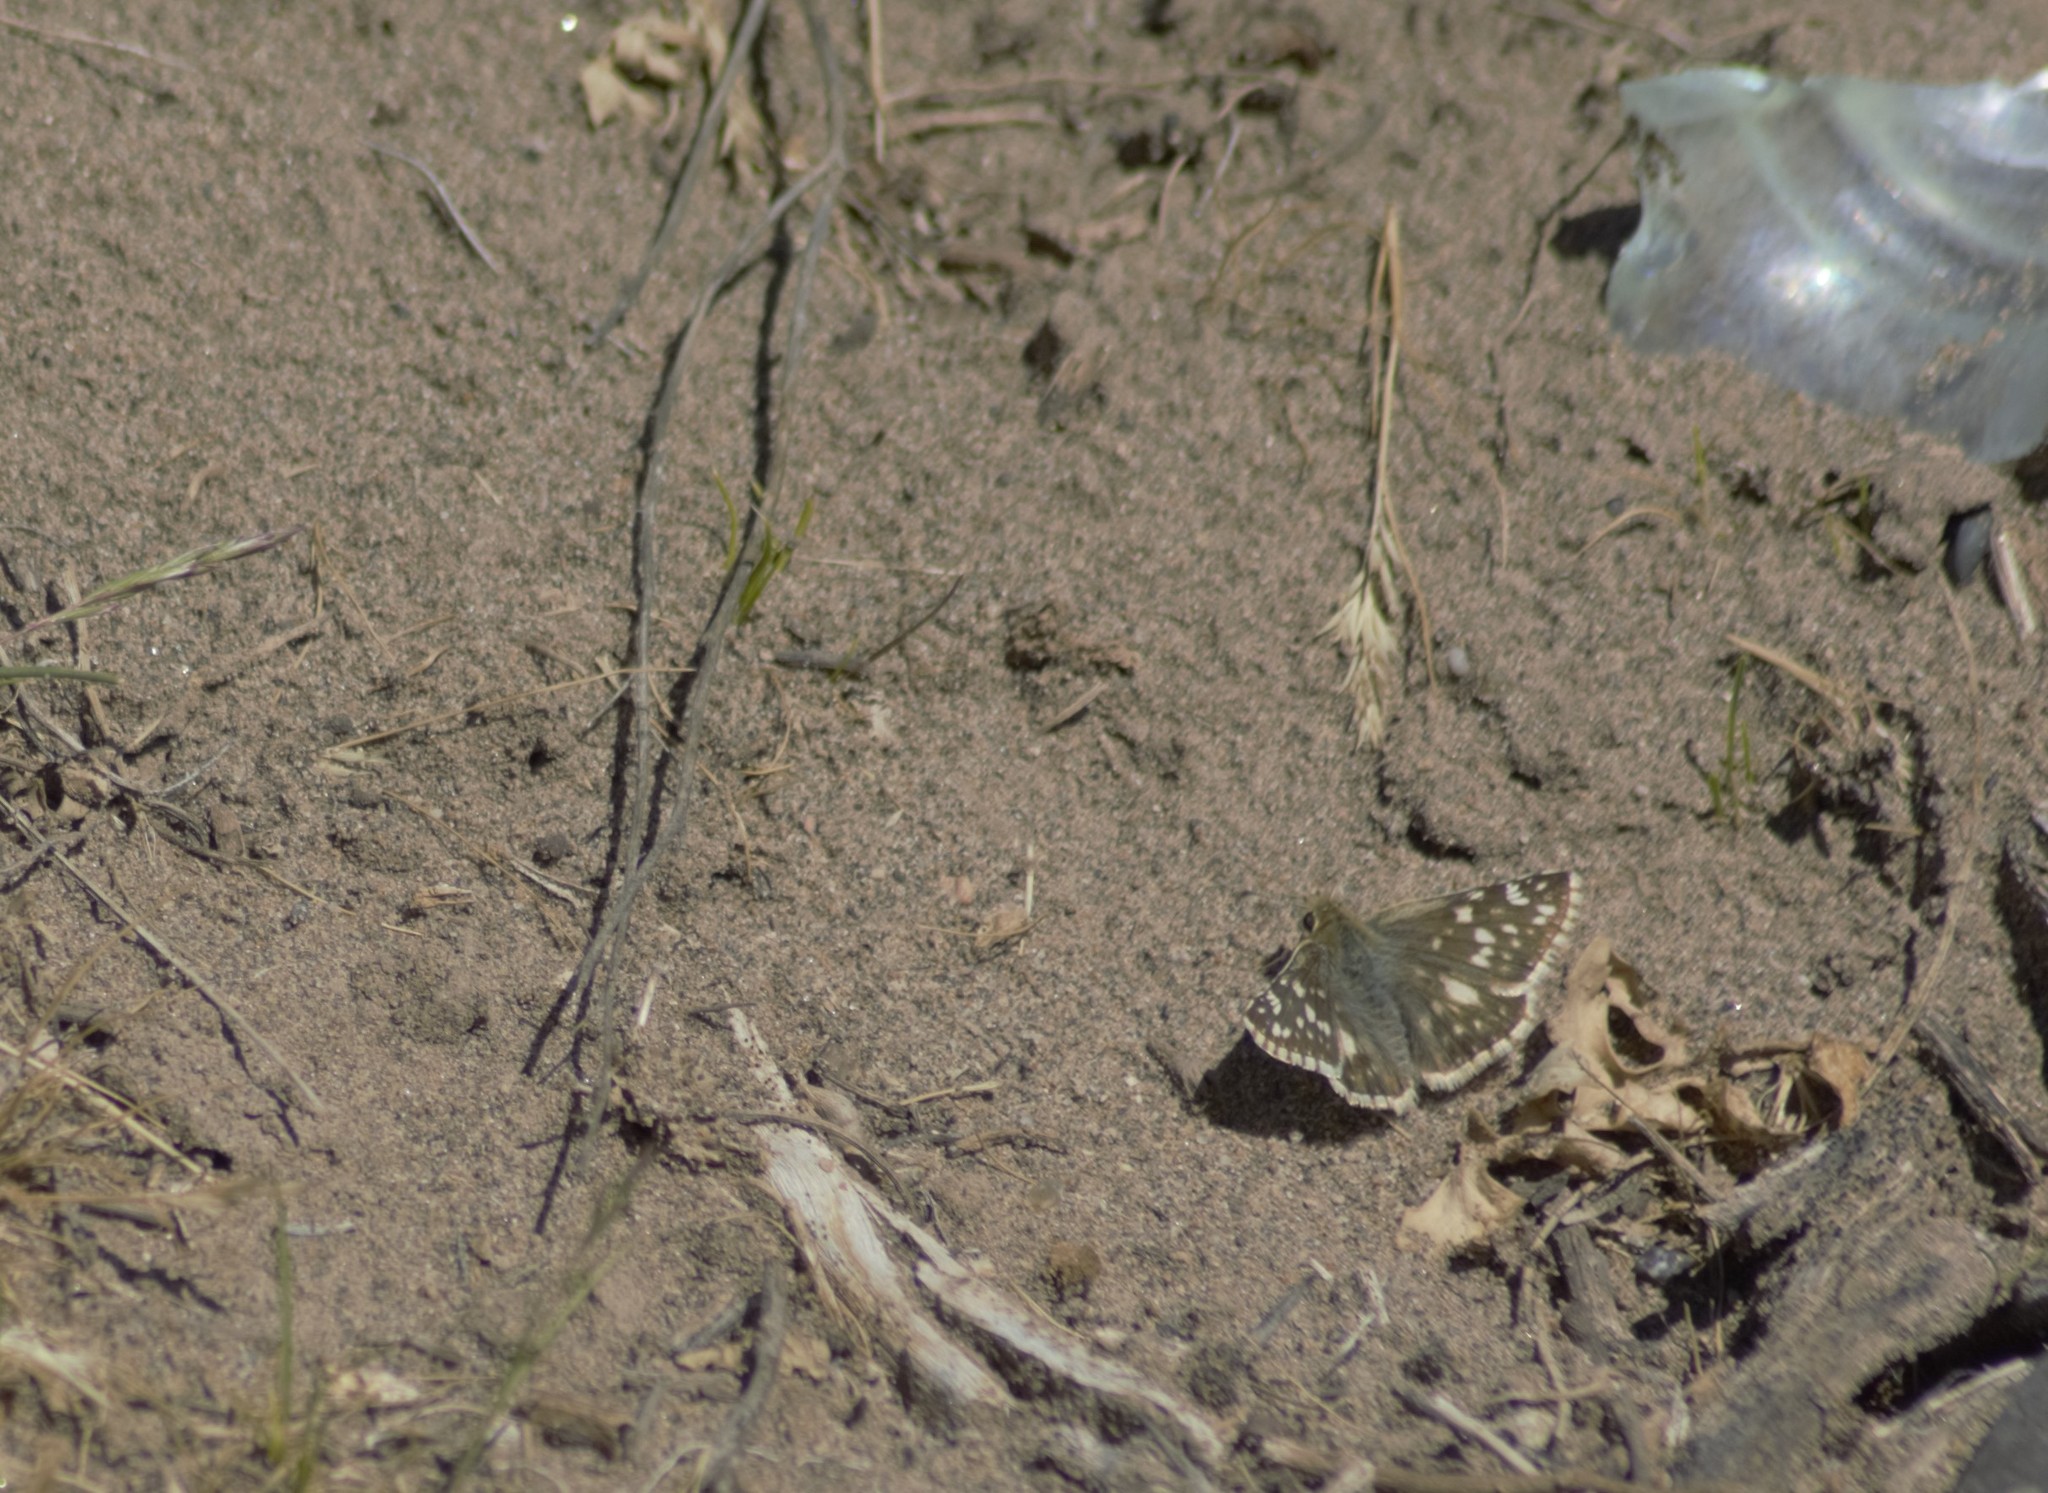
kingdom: Animalia
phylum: Arthropoda
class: Insecta
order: Lepidoptera
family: Hesperiidae
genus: Heliopetes
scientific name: Heliopetes americanus
